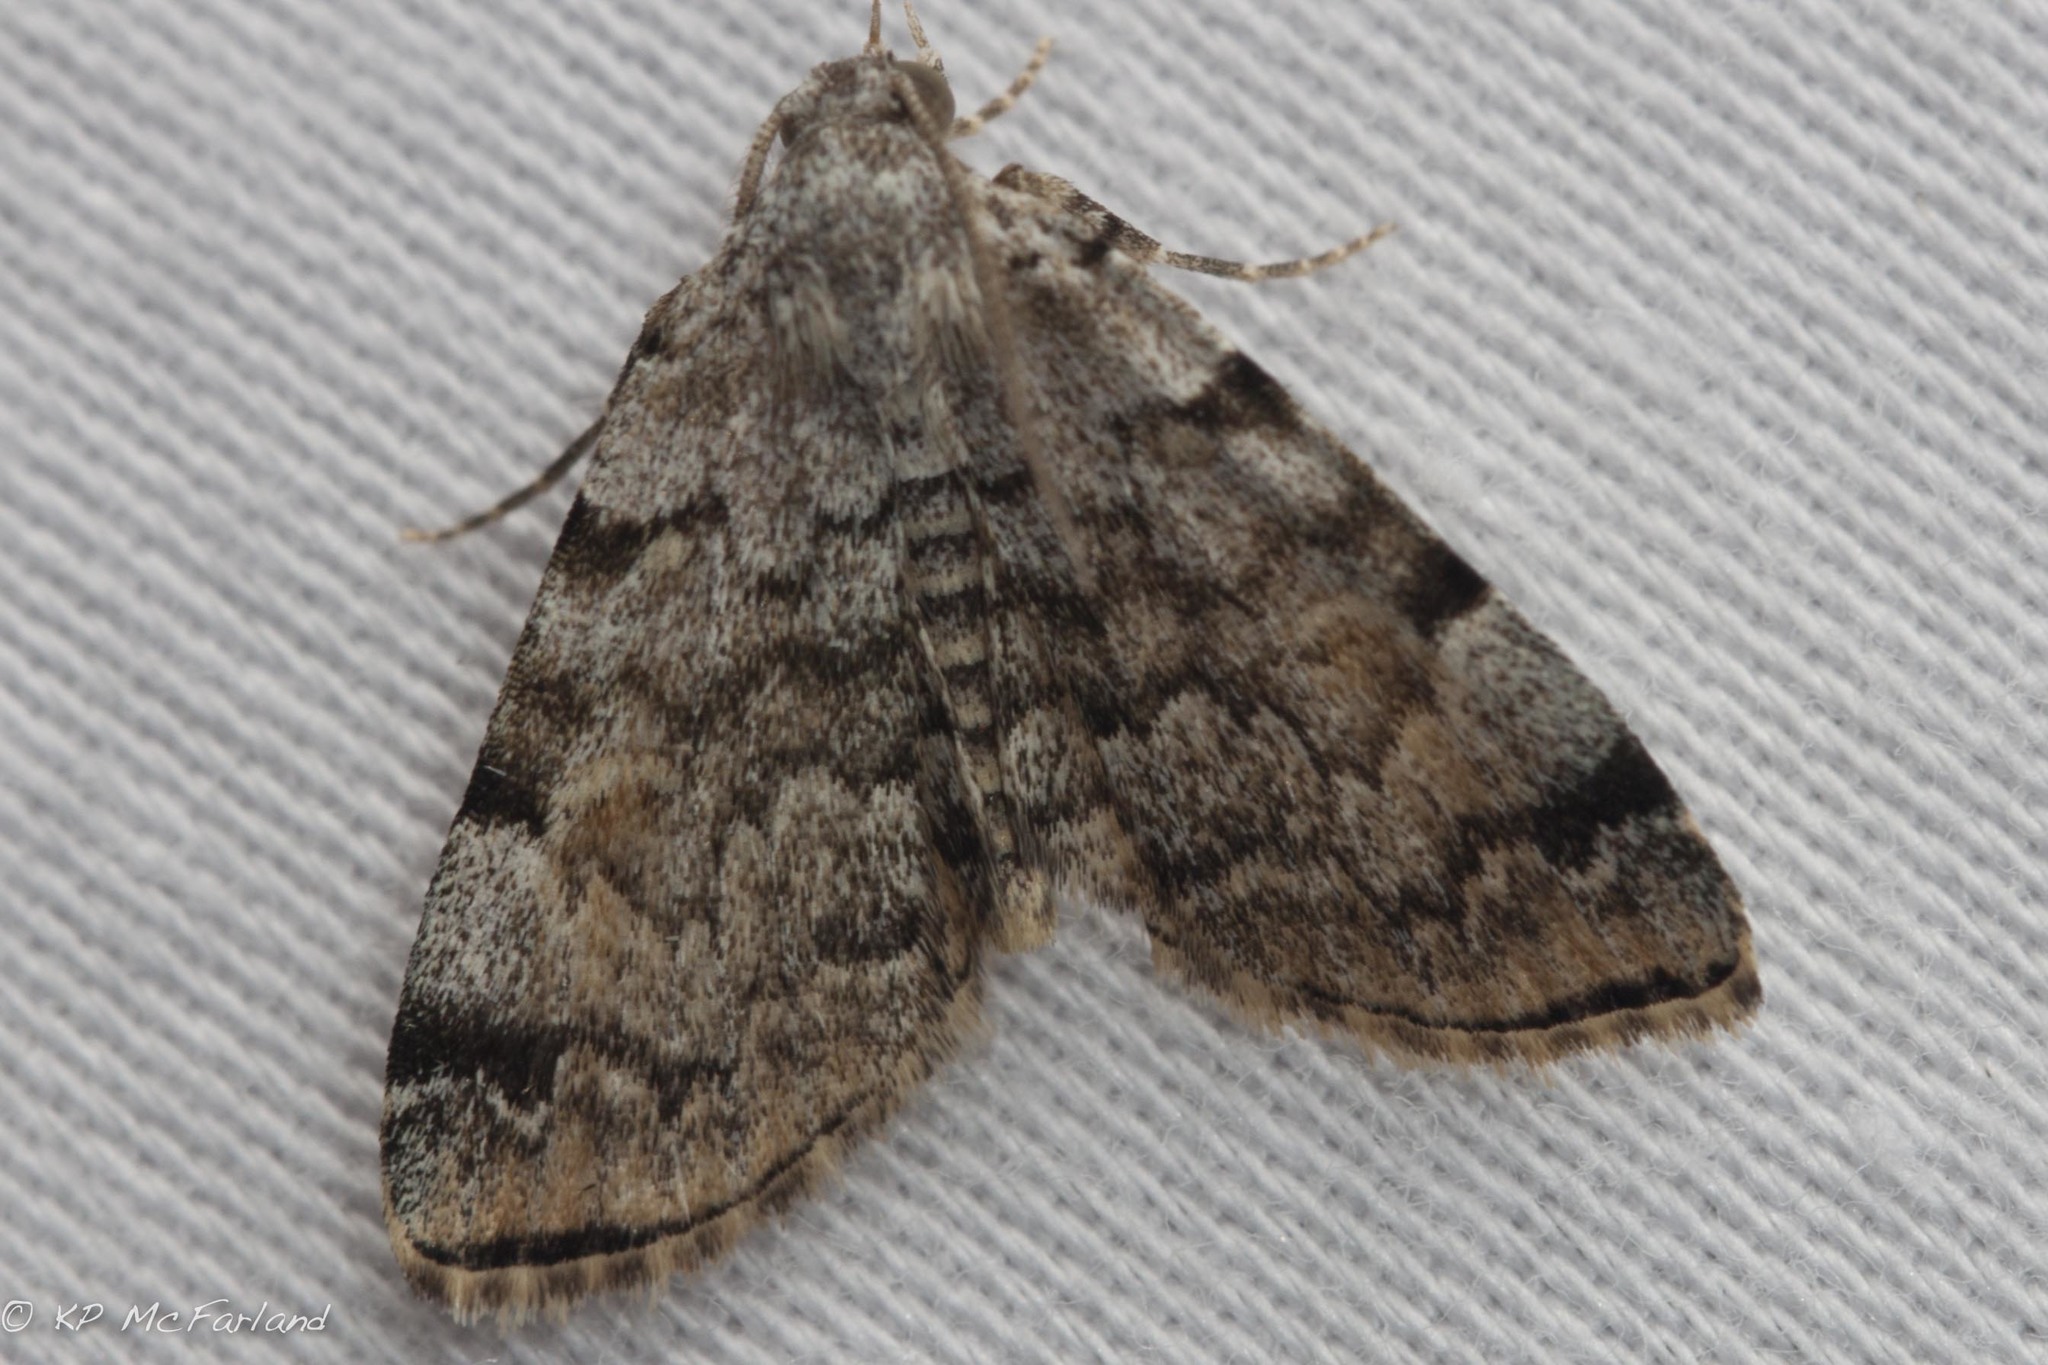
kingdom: Animalia
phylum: Arthropoda
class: Insecta
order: Lepidoptera
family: Erebidae
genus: Idia
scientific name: Idia americalis
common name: American idia moth
